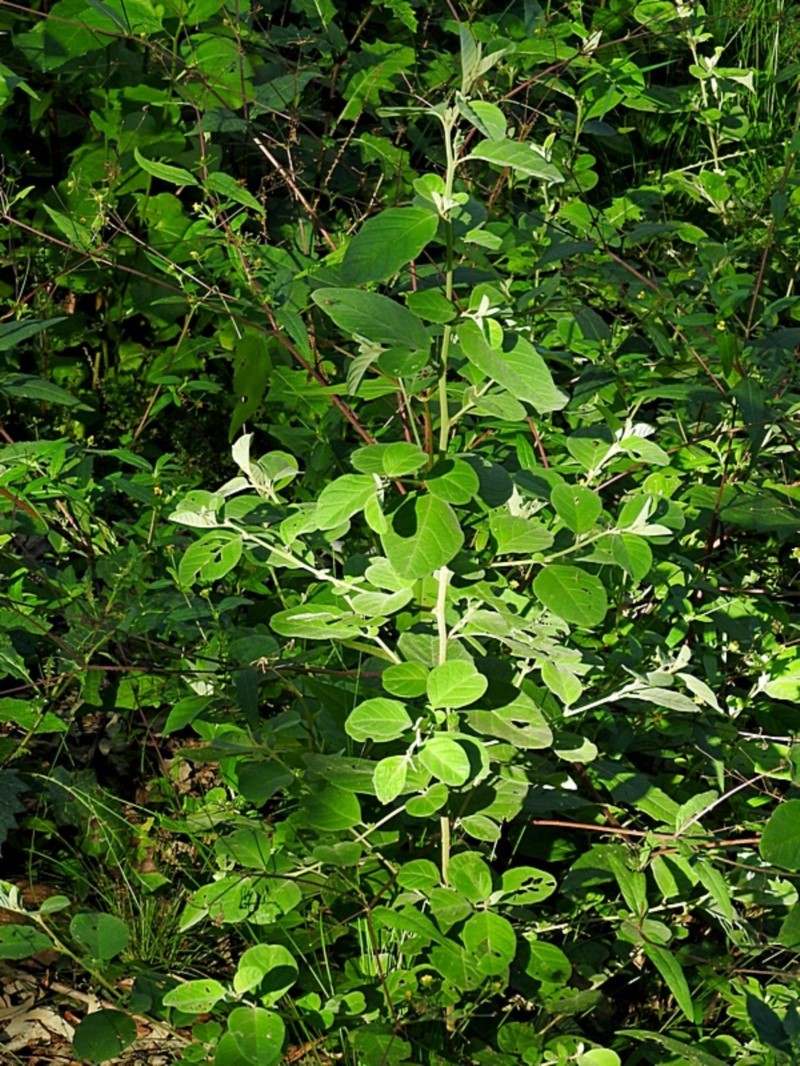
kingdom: Plantae
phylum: Tracheophyta
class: Magnoliopsida
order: Rosales
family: Rhamnaceae
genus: Pomaderris
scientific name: Pomaderris cinerea
